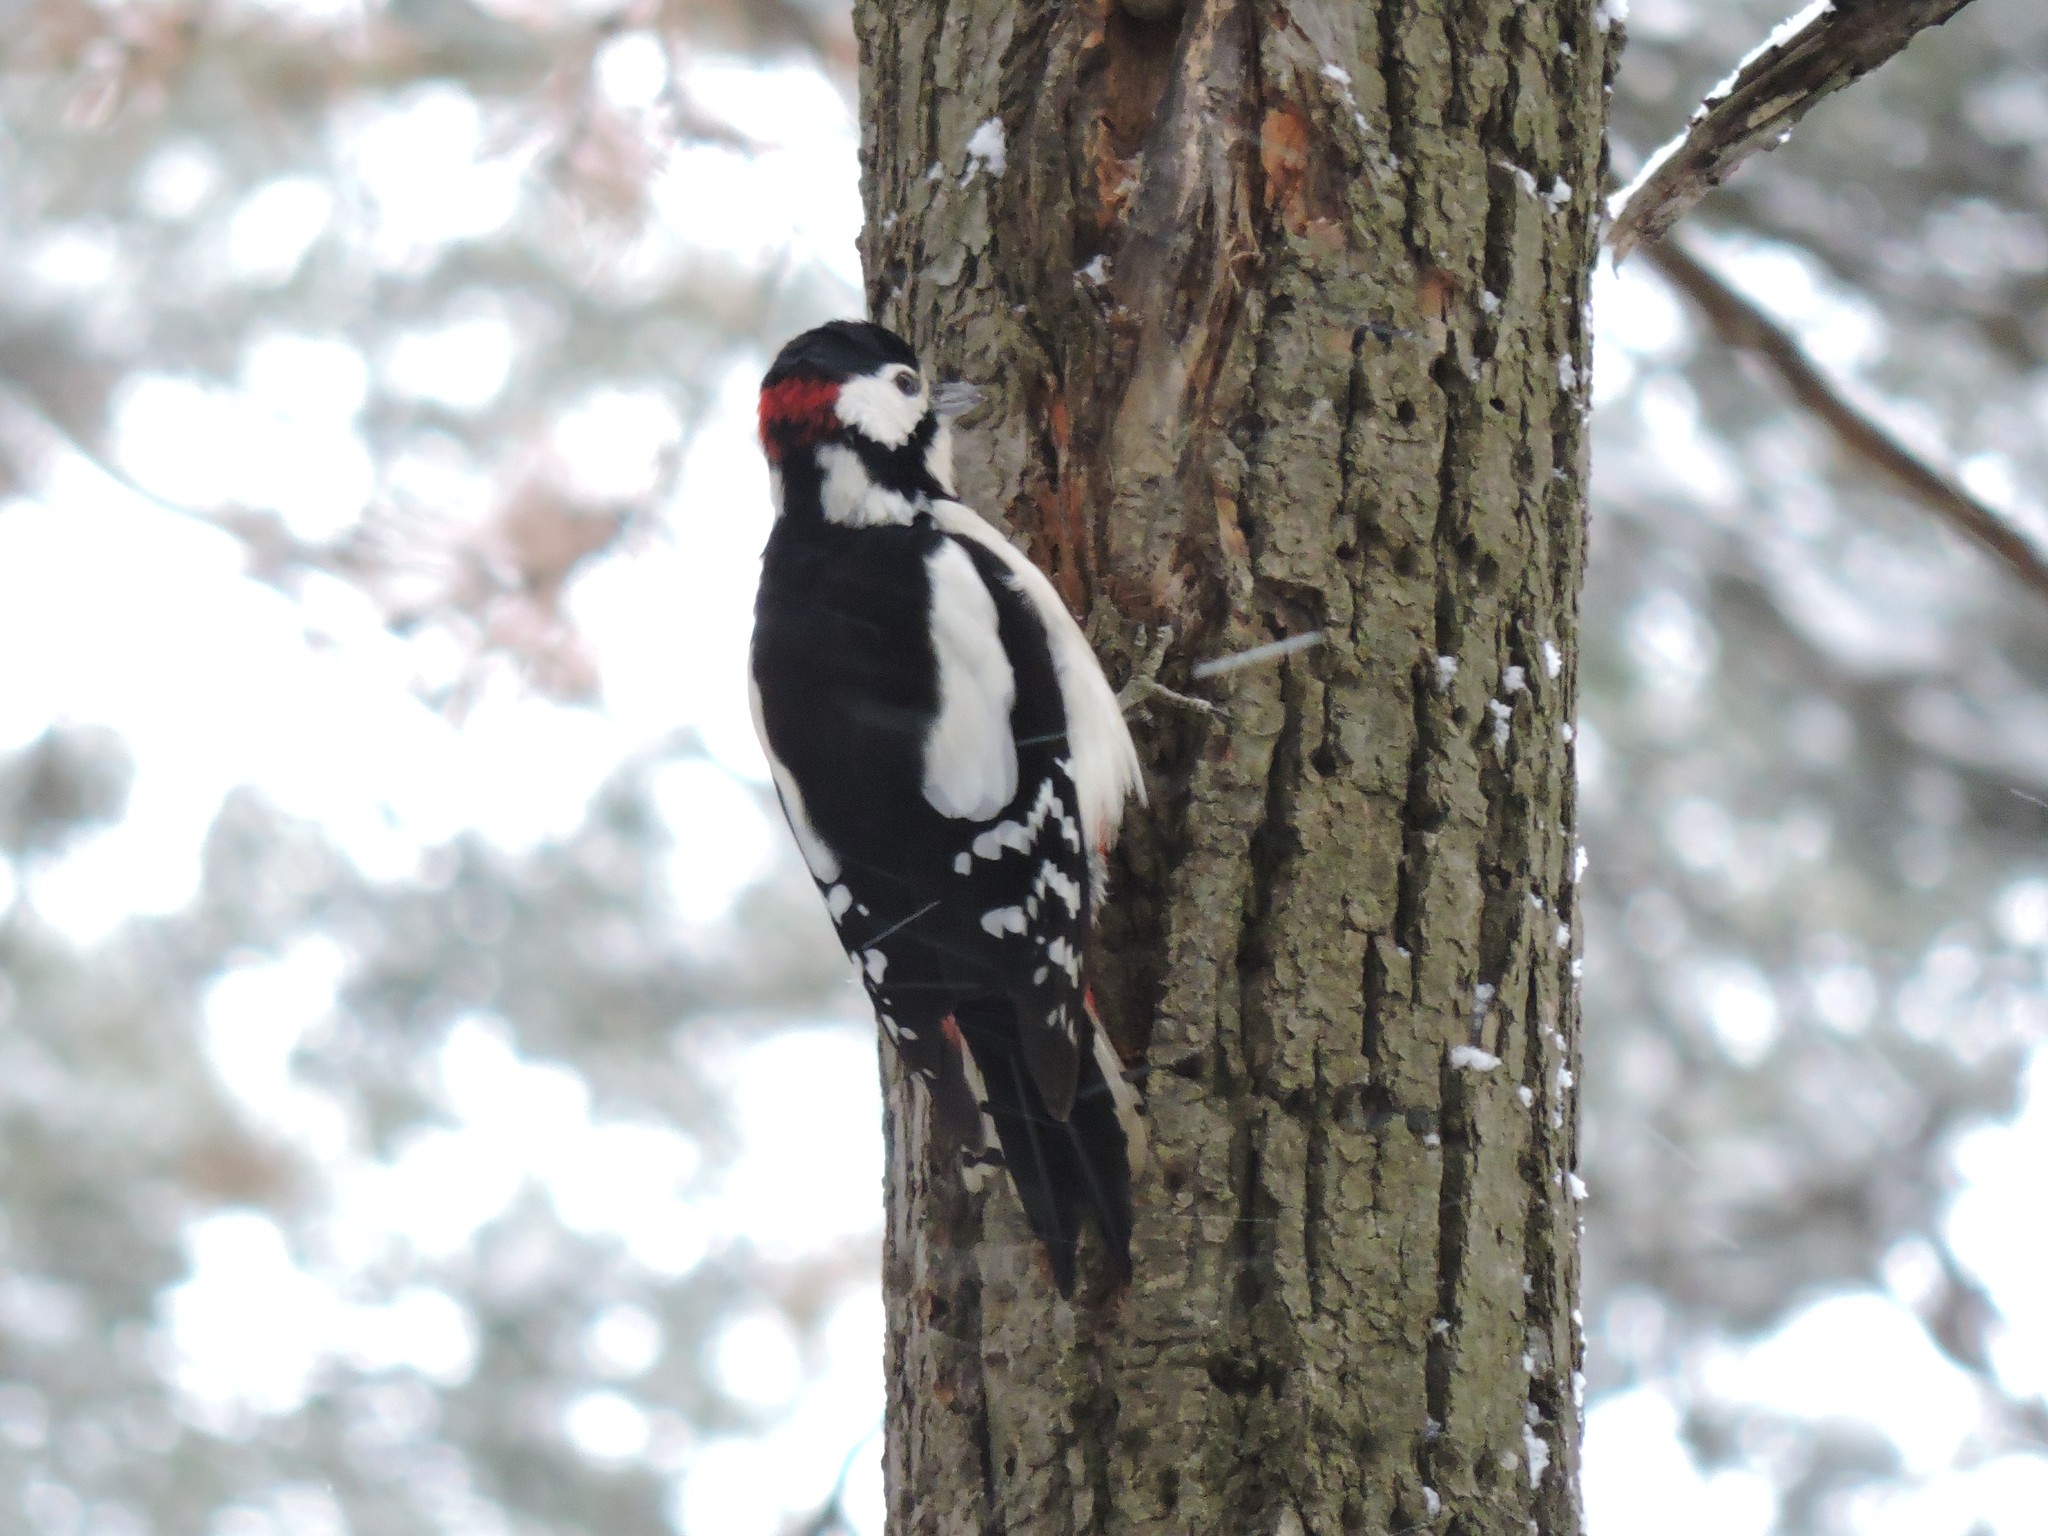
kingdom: Animalia
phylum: Chordata
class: Aves
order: Piciformes
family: Picidae
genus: Dendrocopos
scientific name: Dendrocopos major
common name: Great spotted woodpecker
